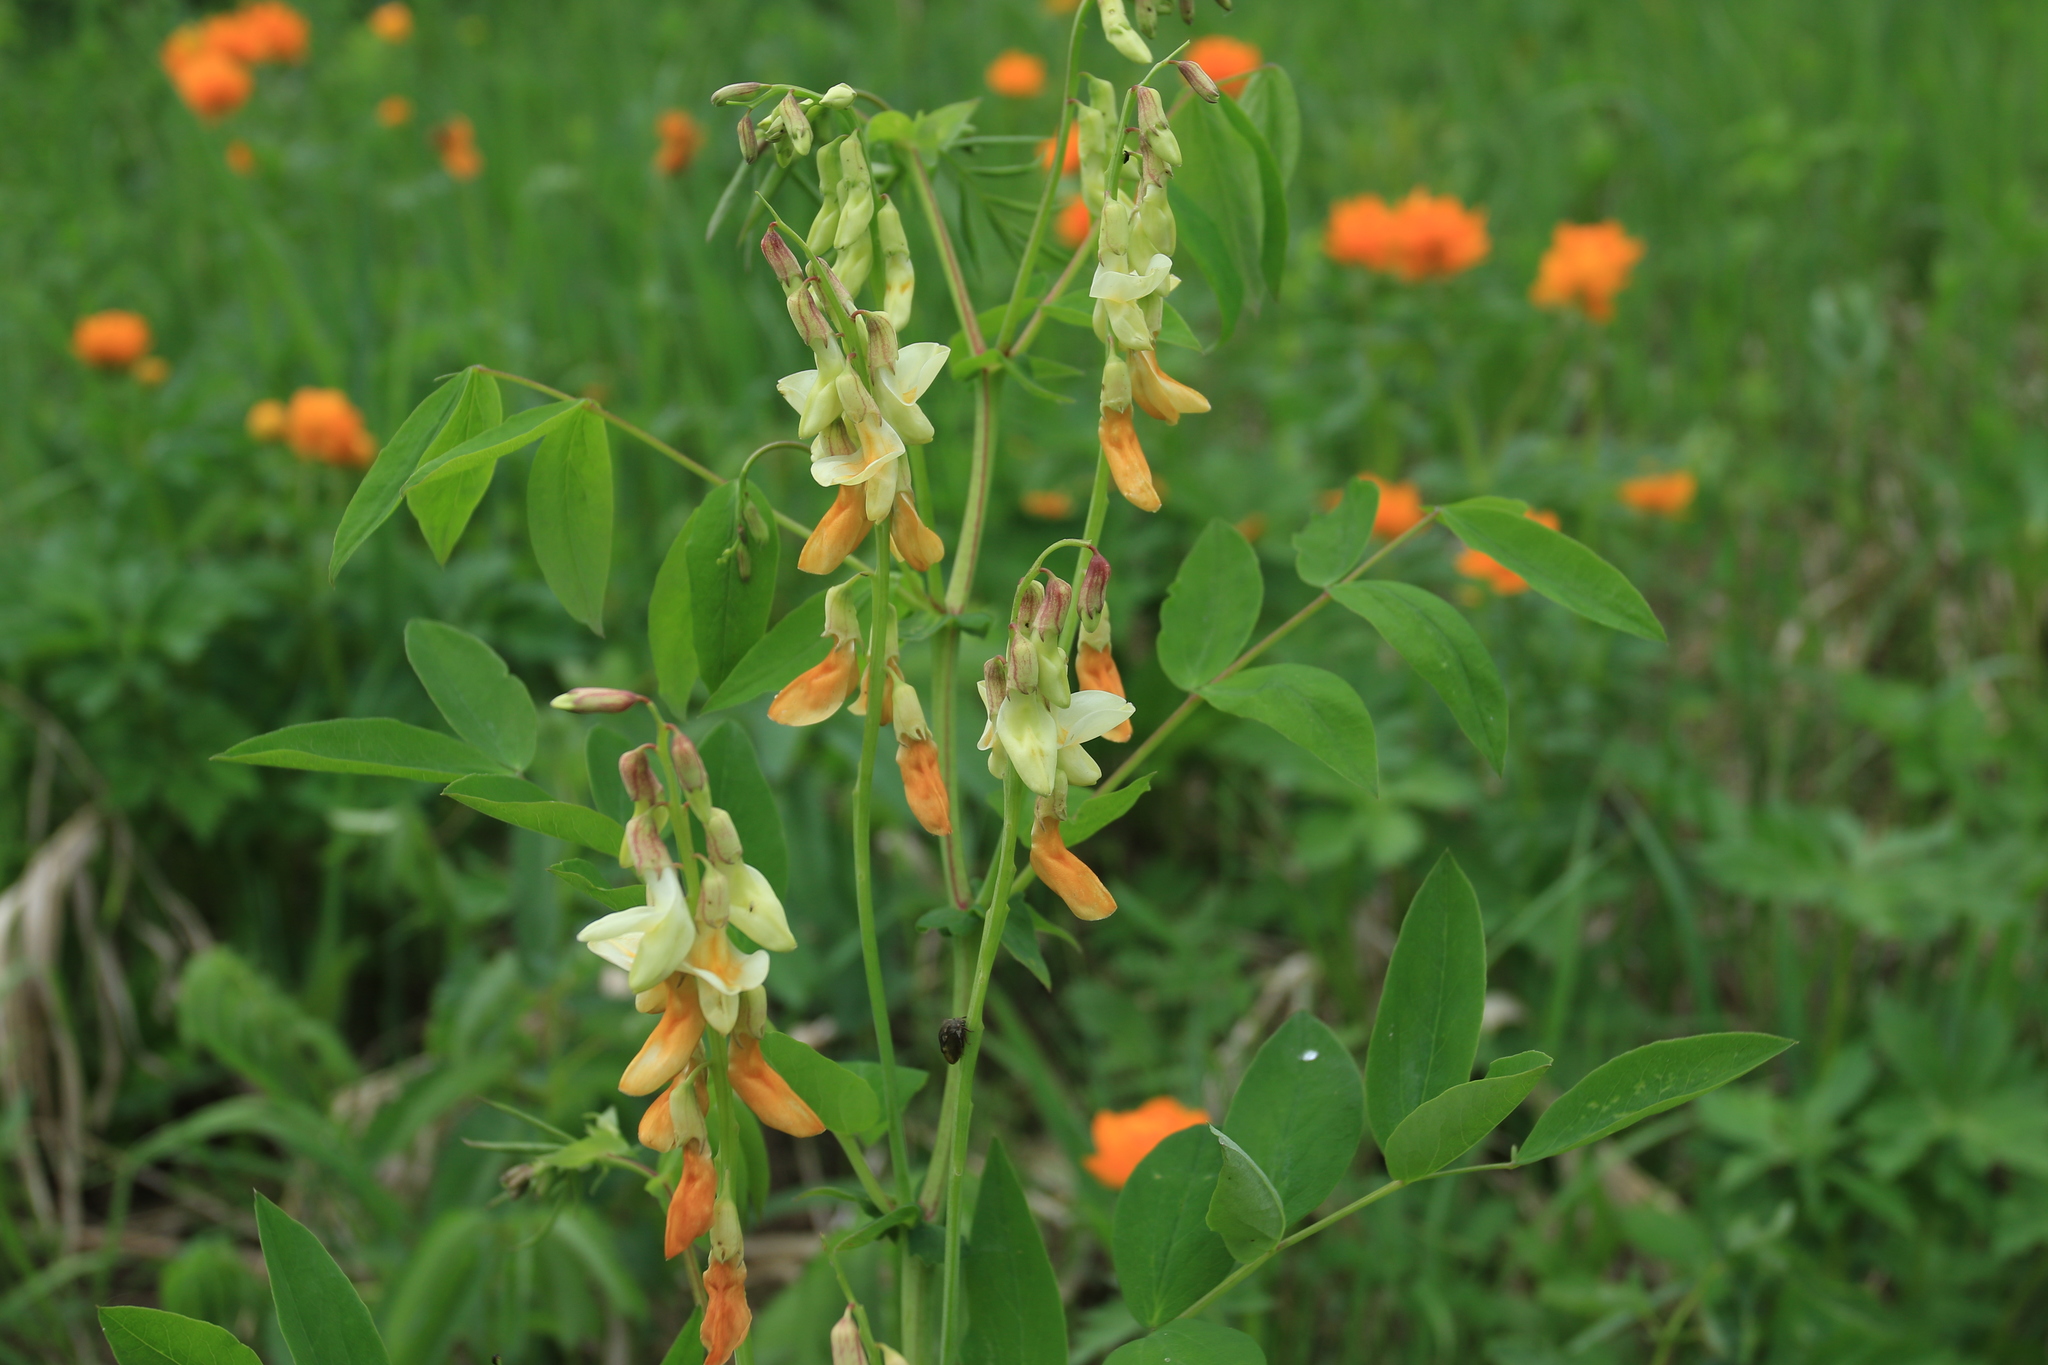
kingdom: Plantae
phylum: Tracheophyta
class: Magnoliopsida
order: Fabales
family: Fabaceae
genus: Lathyrus
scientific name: Lathyrus gmelinii
